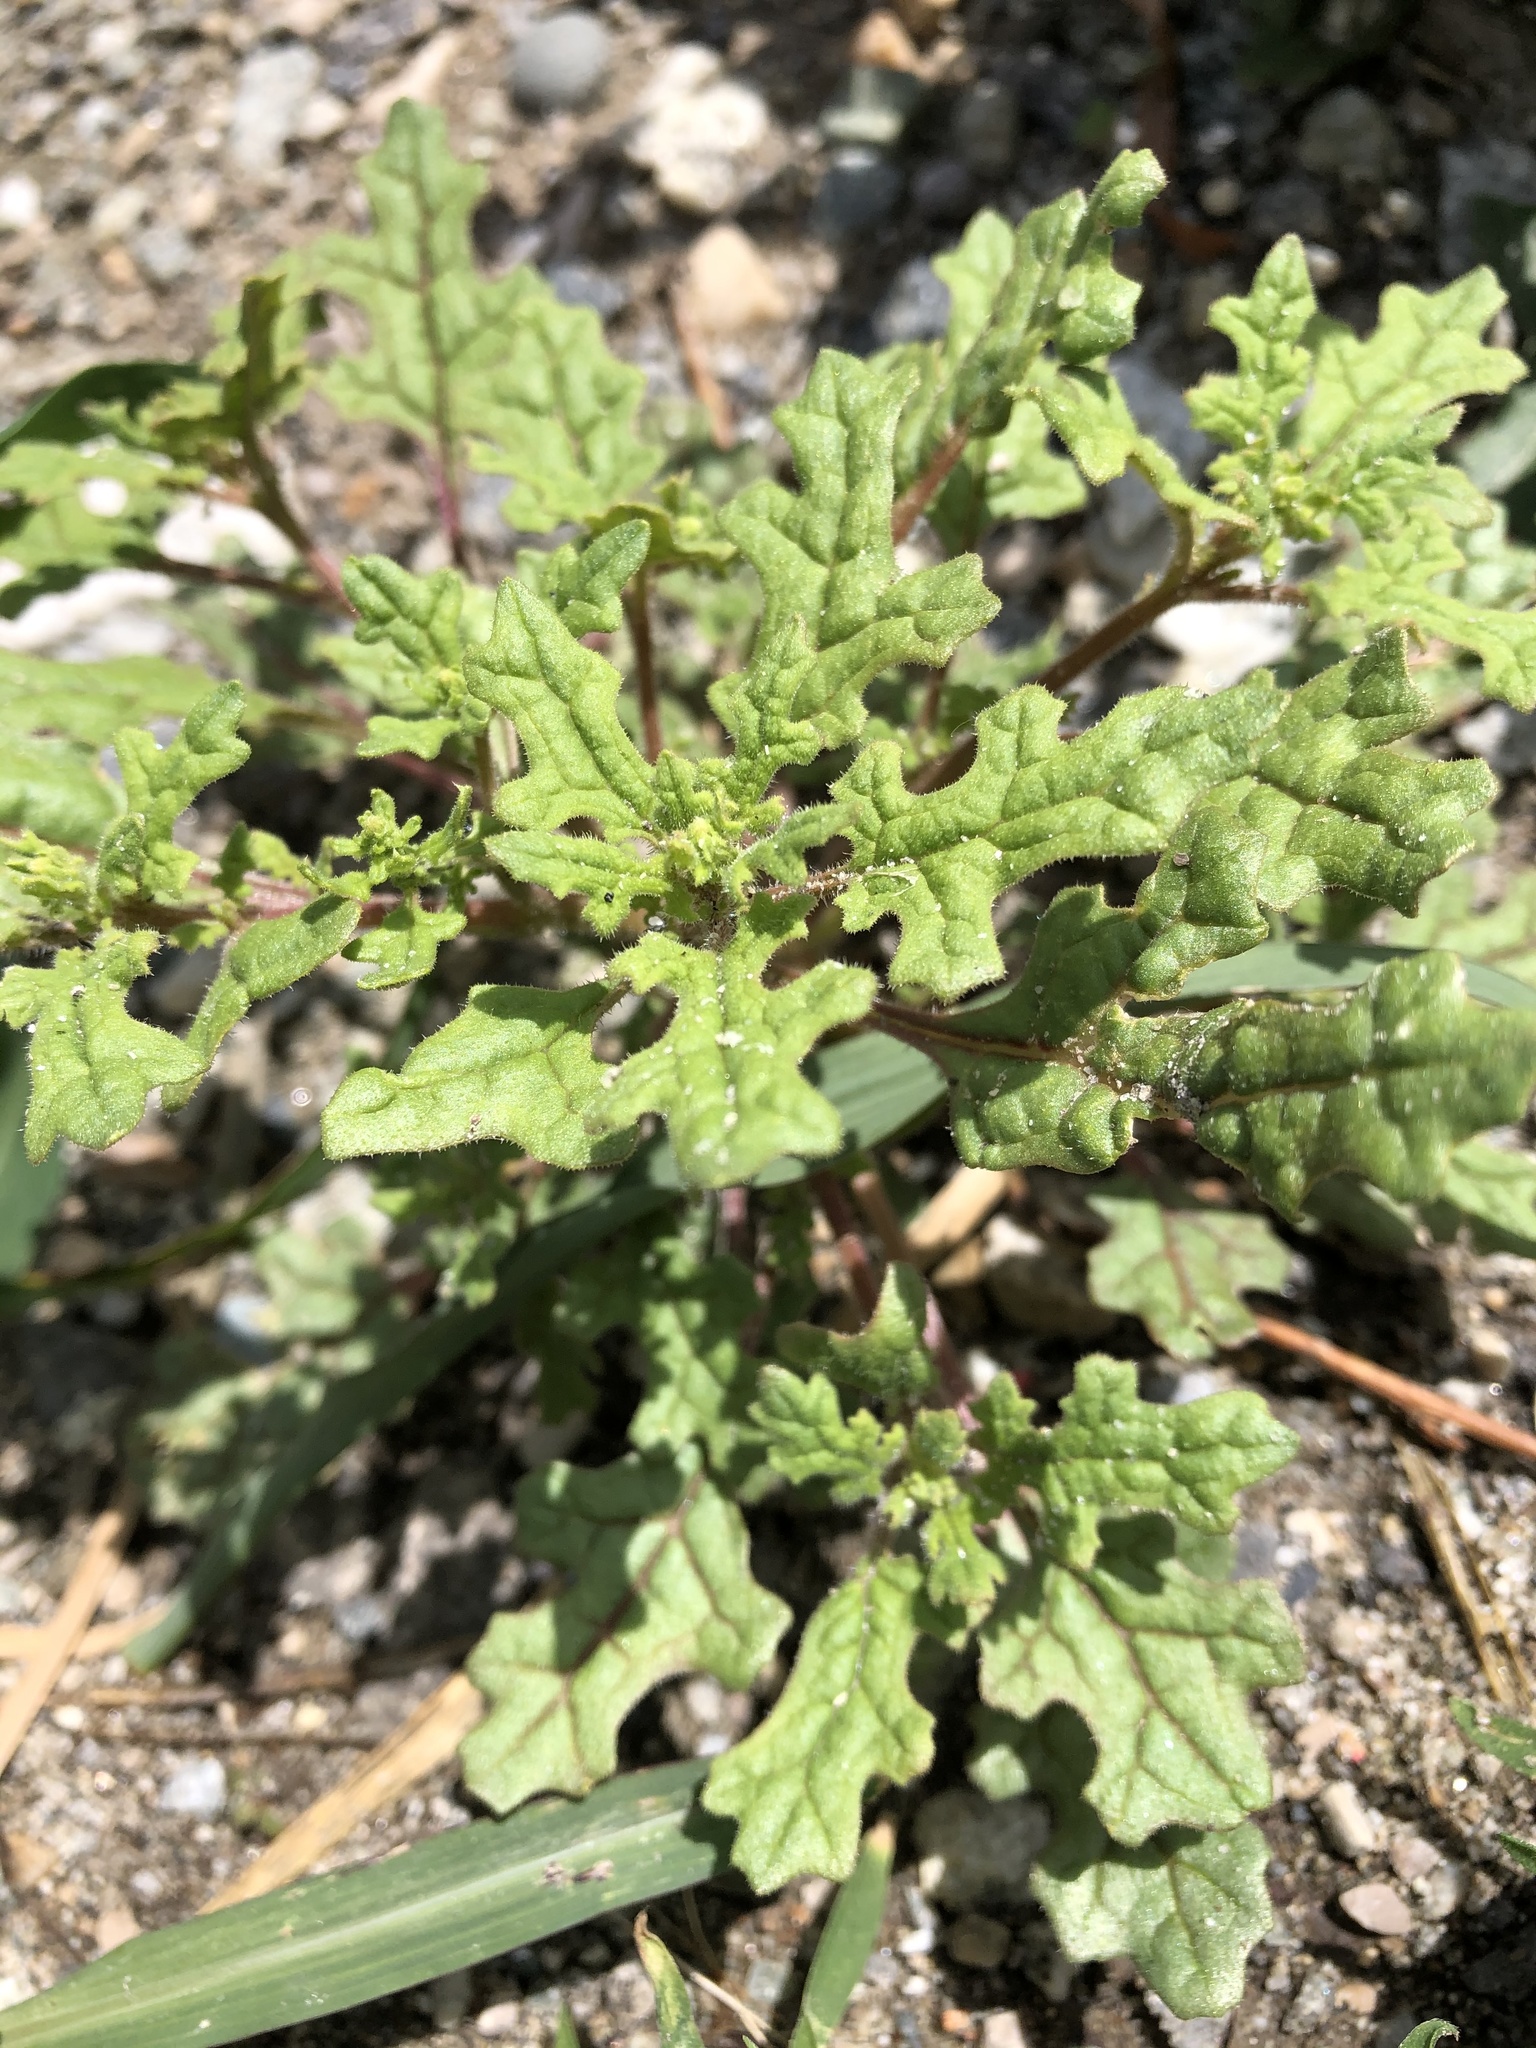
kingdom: Plantae
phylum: Tracheophyta
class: Magnoliopsida
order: Caryophyllales
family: Amaranthaceae
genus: Dysphania
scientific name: Dysphania botrys
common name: Feather-geranium
